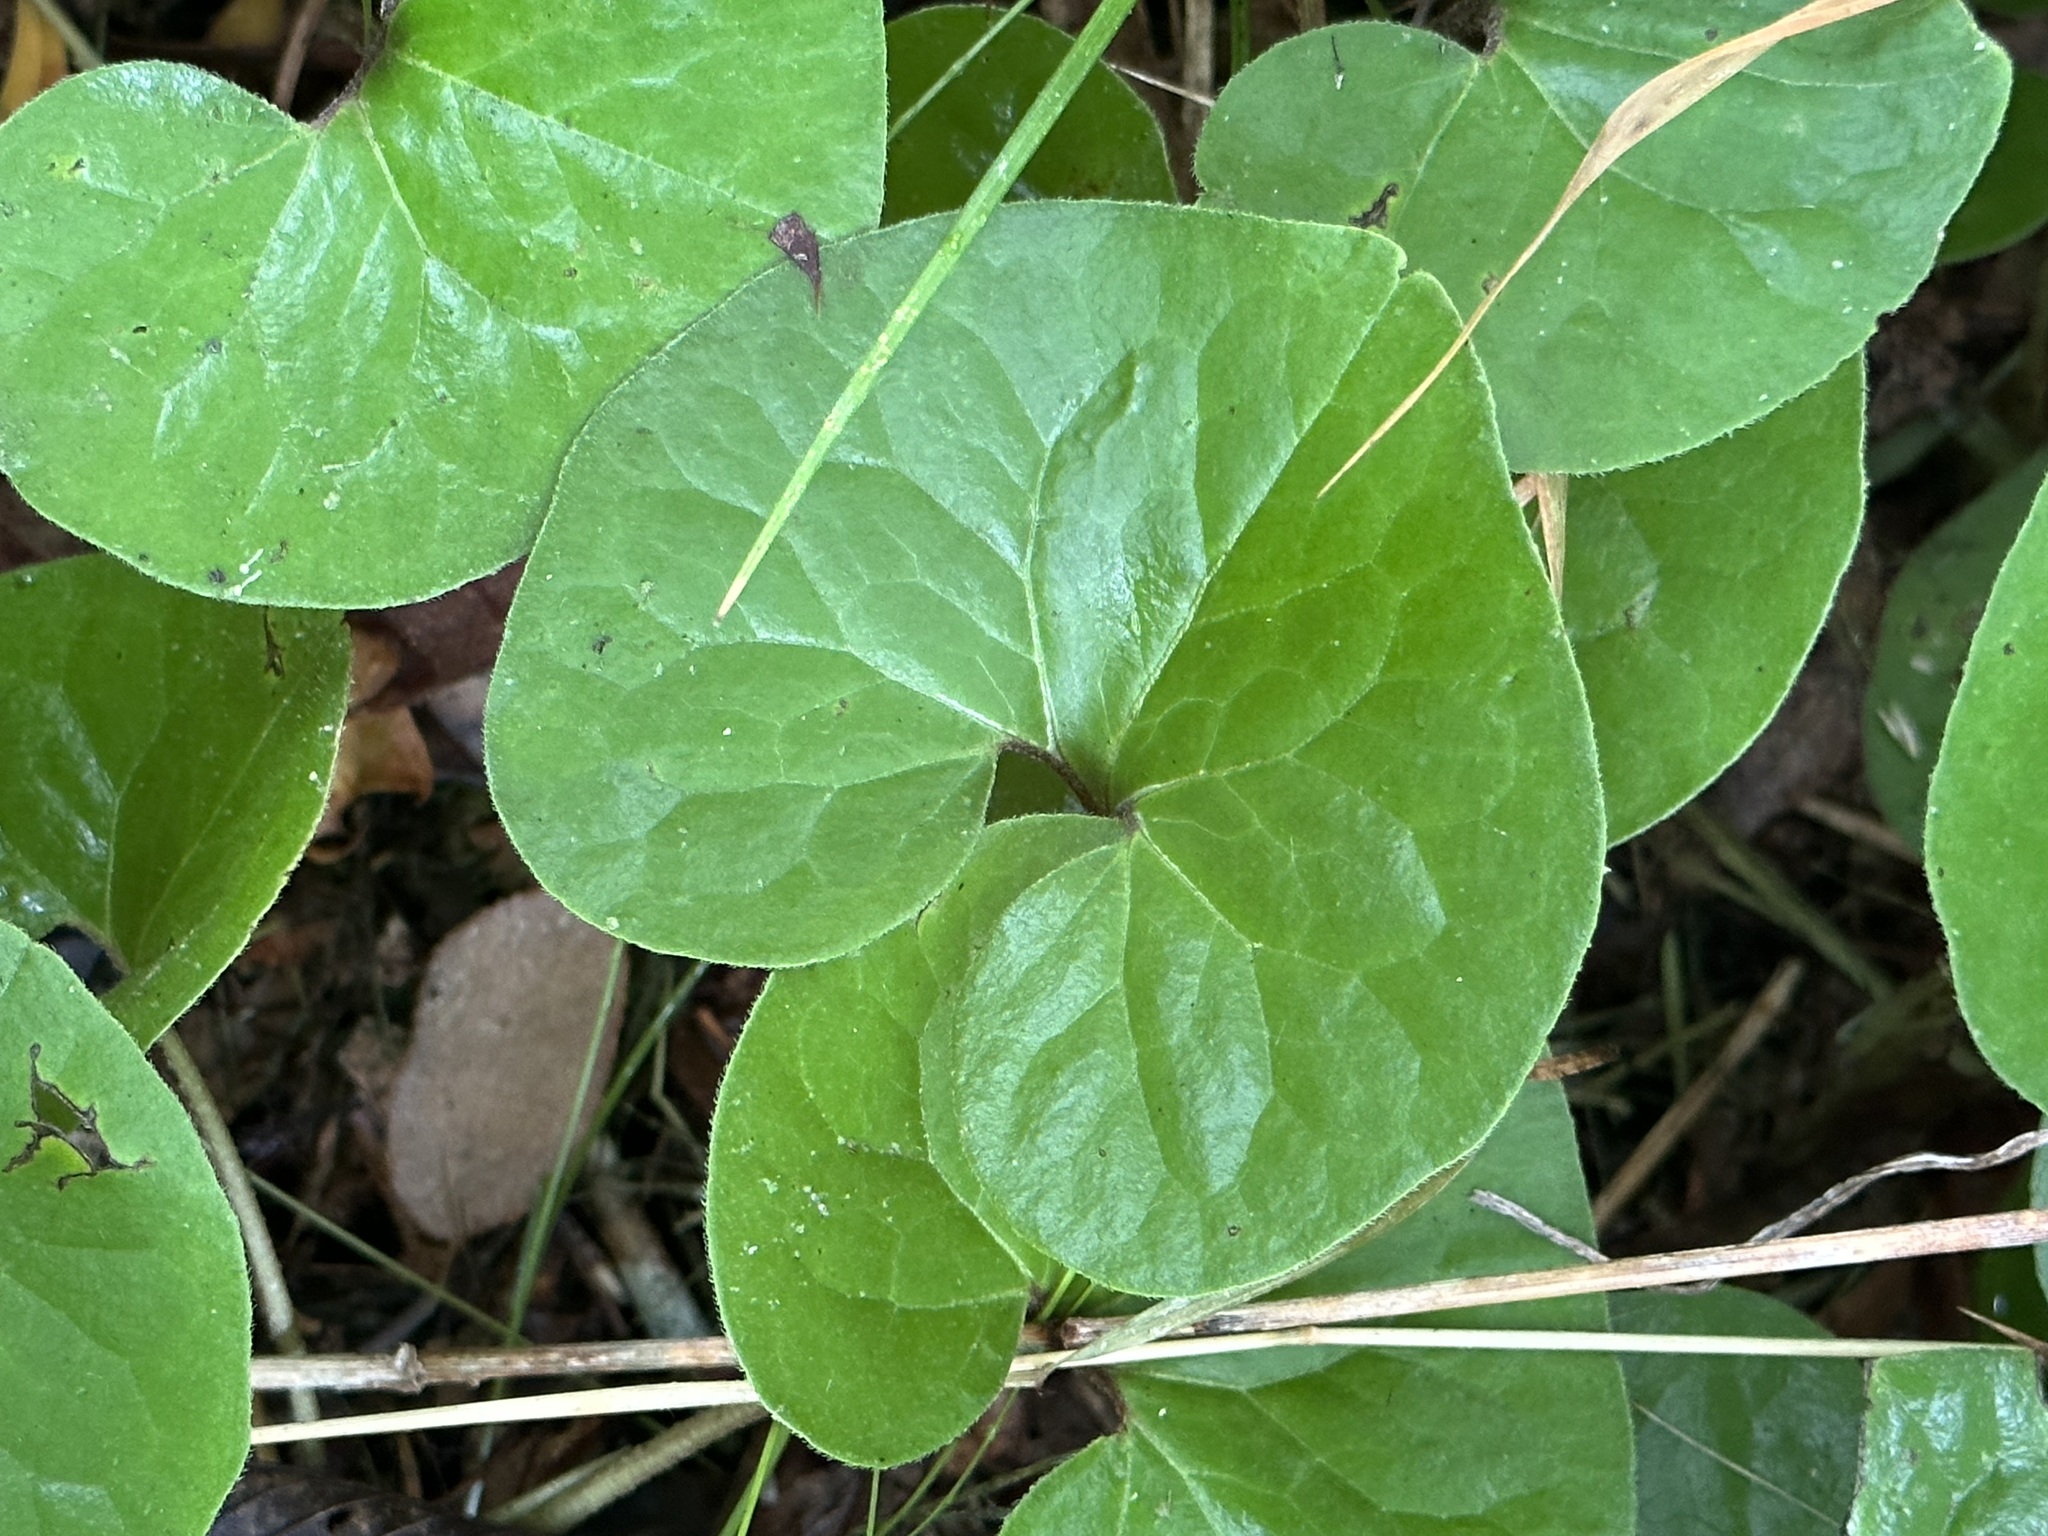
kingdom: Plantae
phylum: Tracheophyta
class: Magnoliopsida
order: Piperales
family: Aristolochiaceae
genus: Asarum
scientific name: Asarum canadense
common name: Wild ginger
